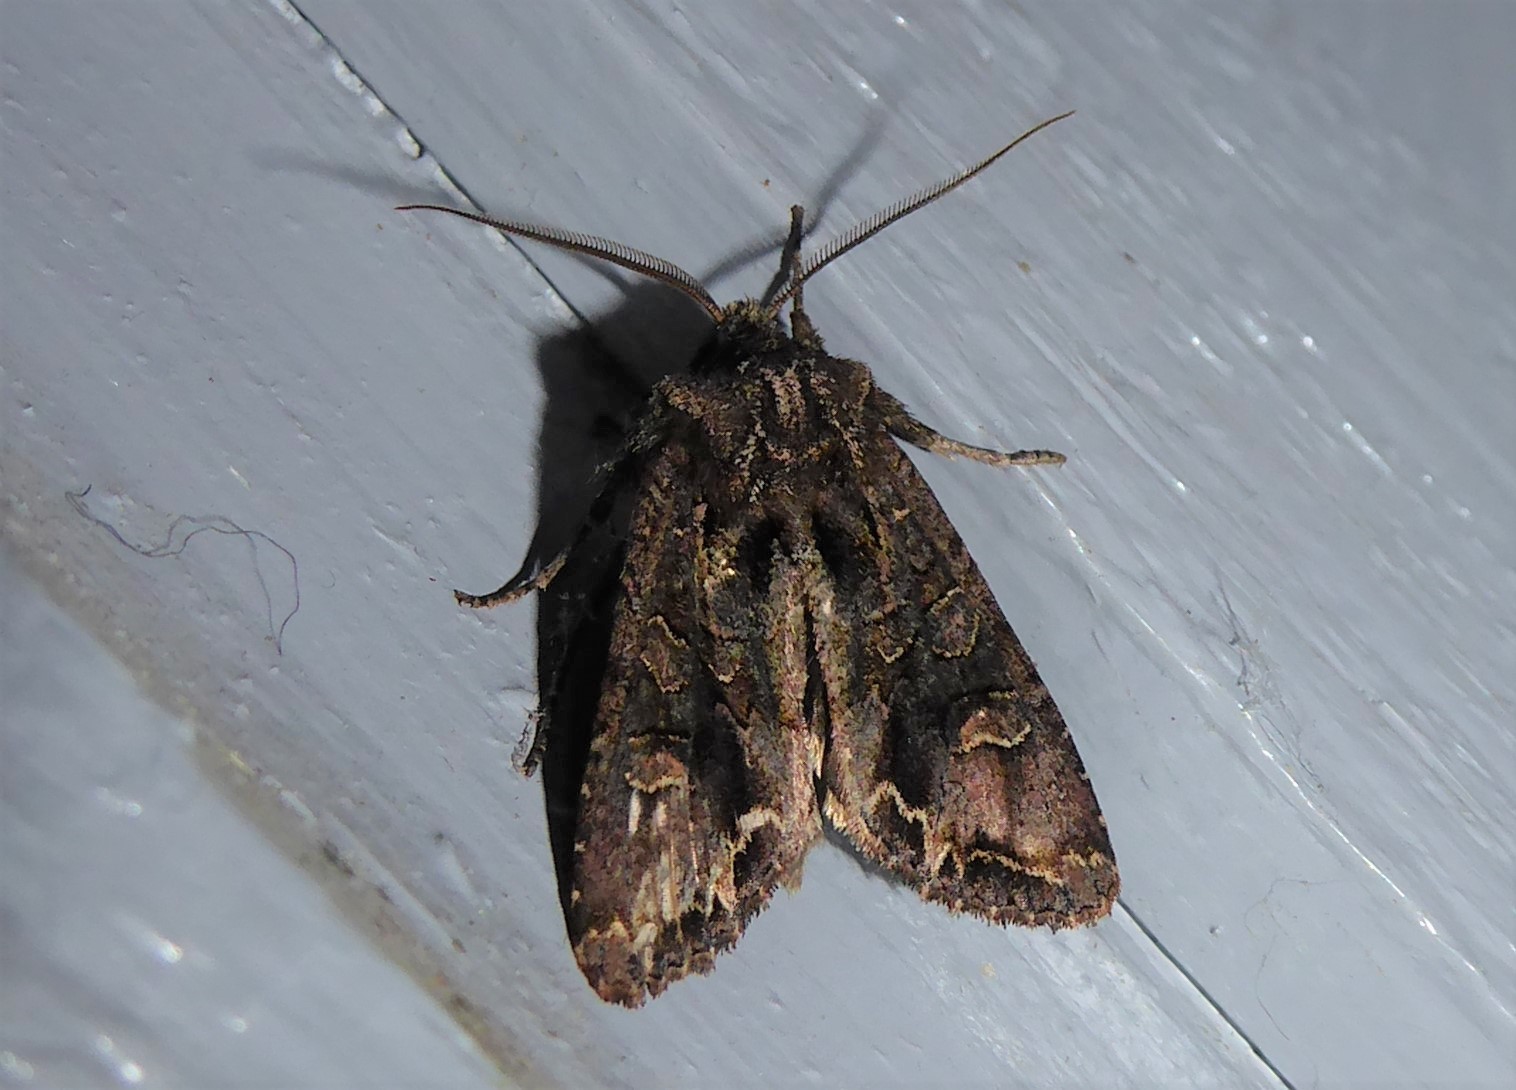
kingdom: Animalia
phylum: Arthropoda
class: Insecta
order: Lepidoptera
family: Noctuidae
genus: Ichneutica
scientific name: Ichneutica skelloni
